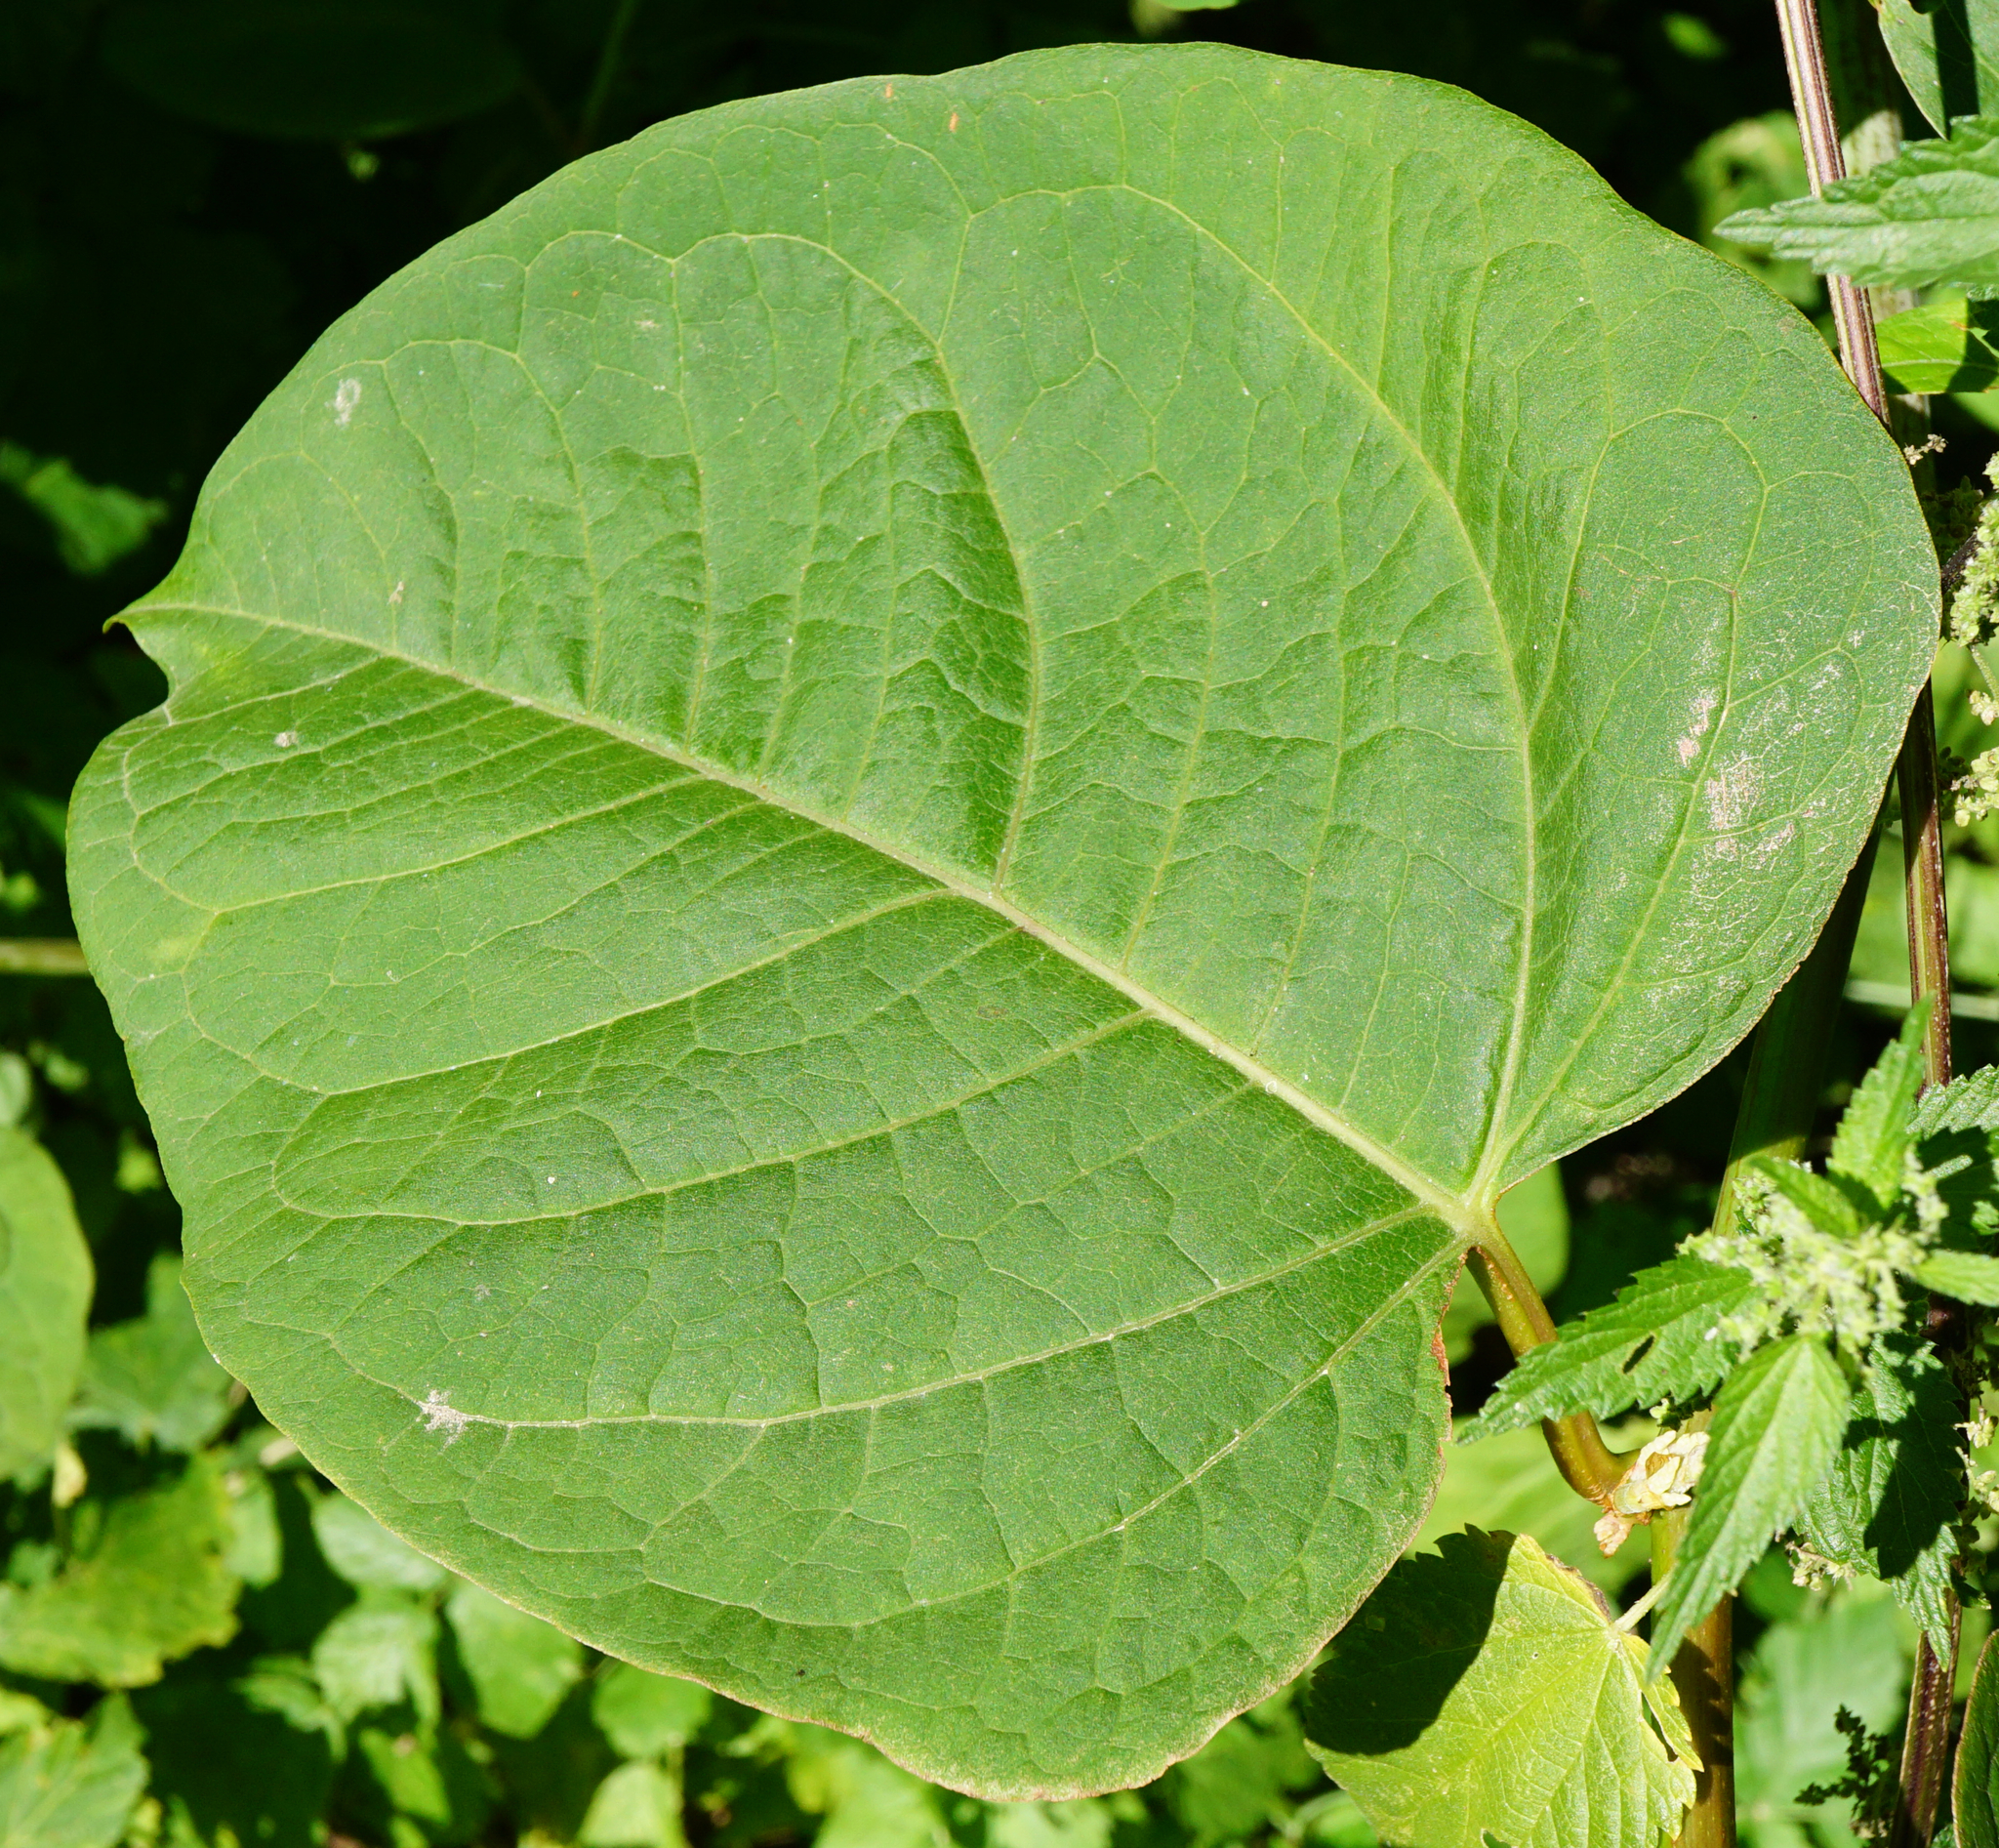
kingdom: Plantae
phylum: Tracheophyta
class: Magnoliopsida
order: Caryophyllales
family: Polygonaceae
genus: Reynoutria
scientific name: Reynoutria bohemica
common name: Bohemian knotweed
